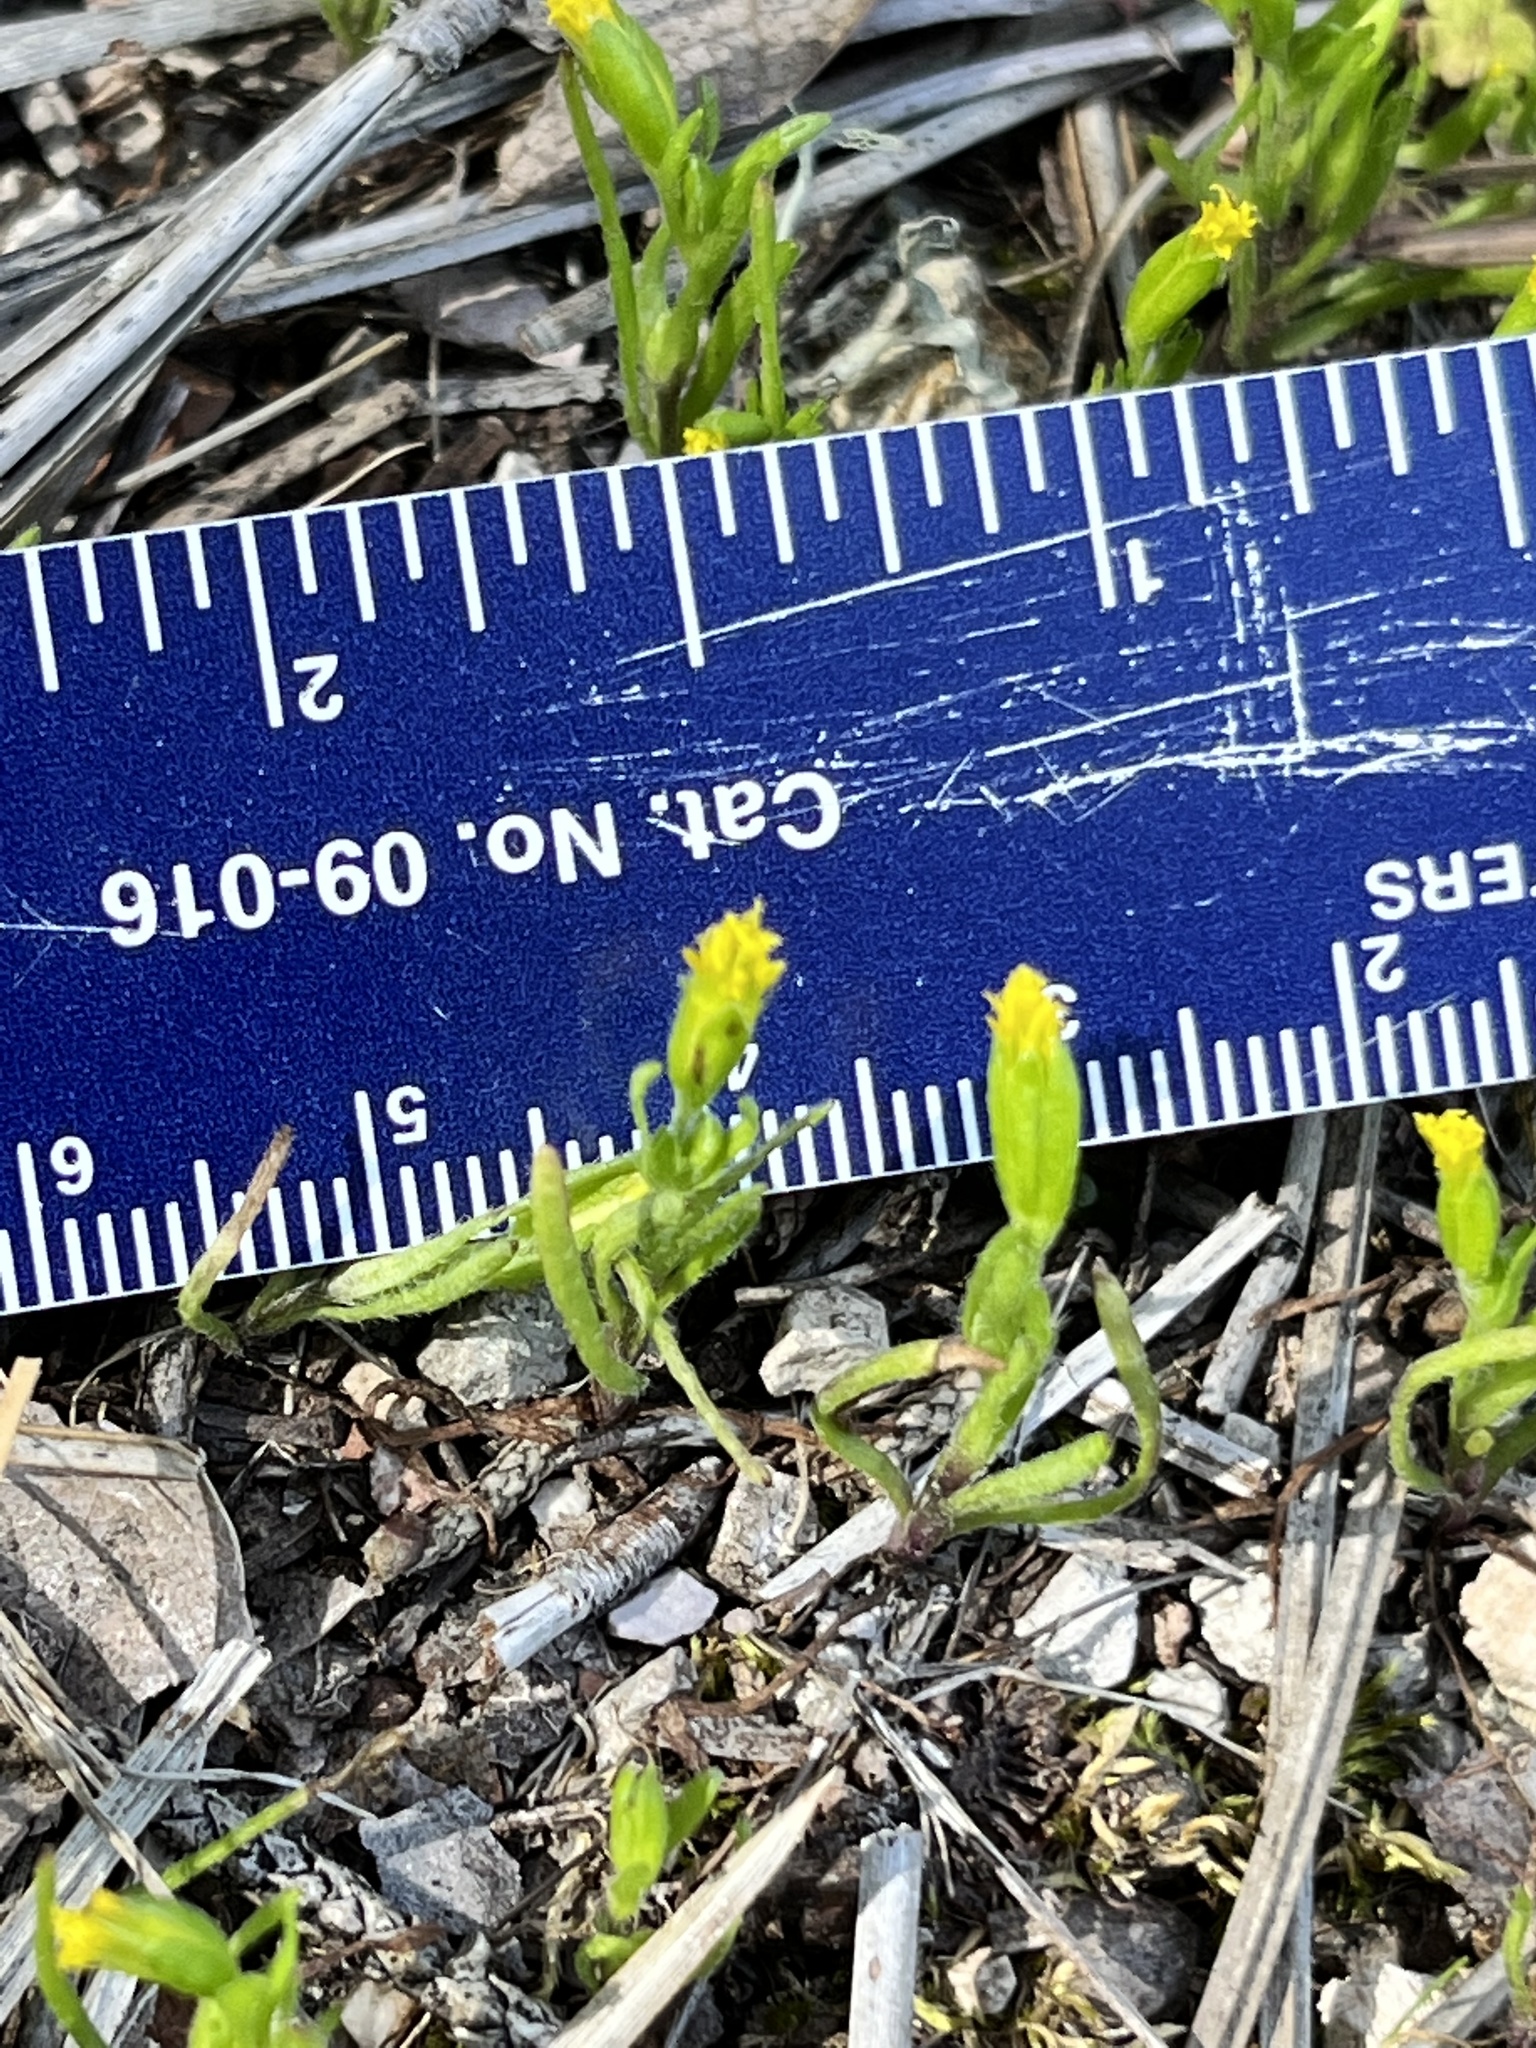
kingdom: Plantae
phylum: Tracheophyta
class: Magnoliopsida
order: Asterales
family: Asteraceae
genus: Lasthenia
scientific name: Lasthenia microglossa
